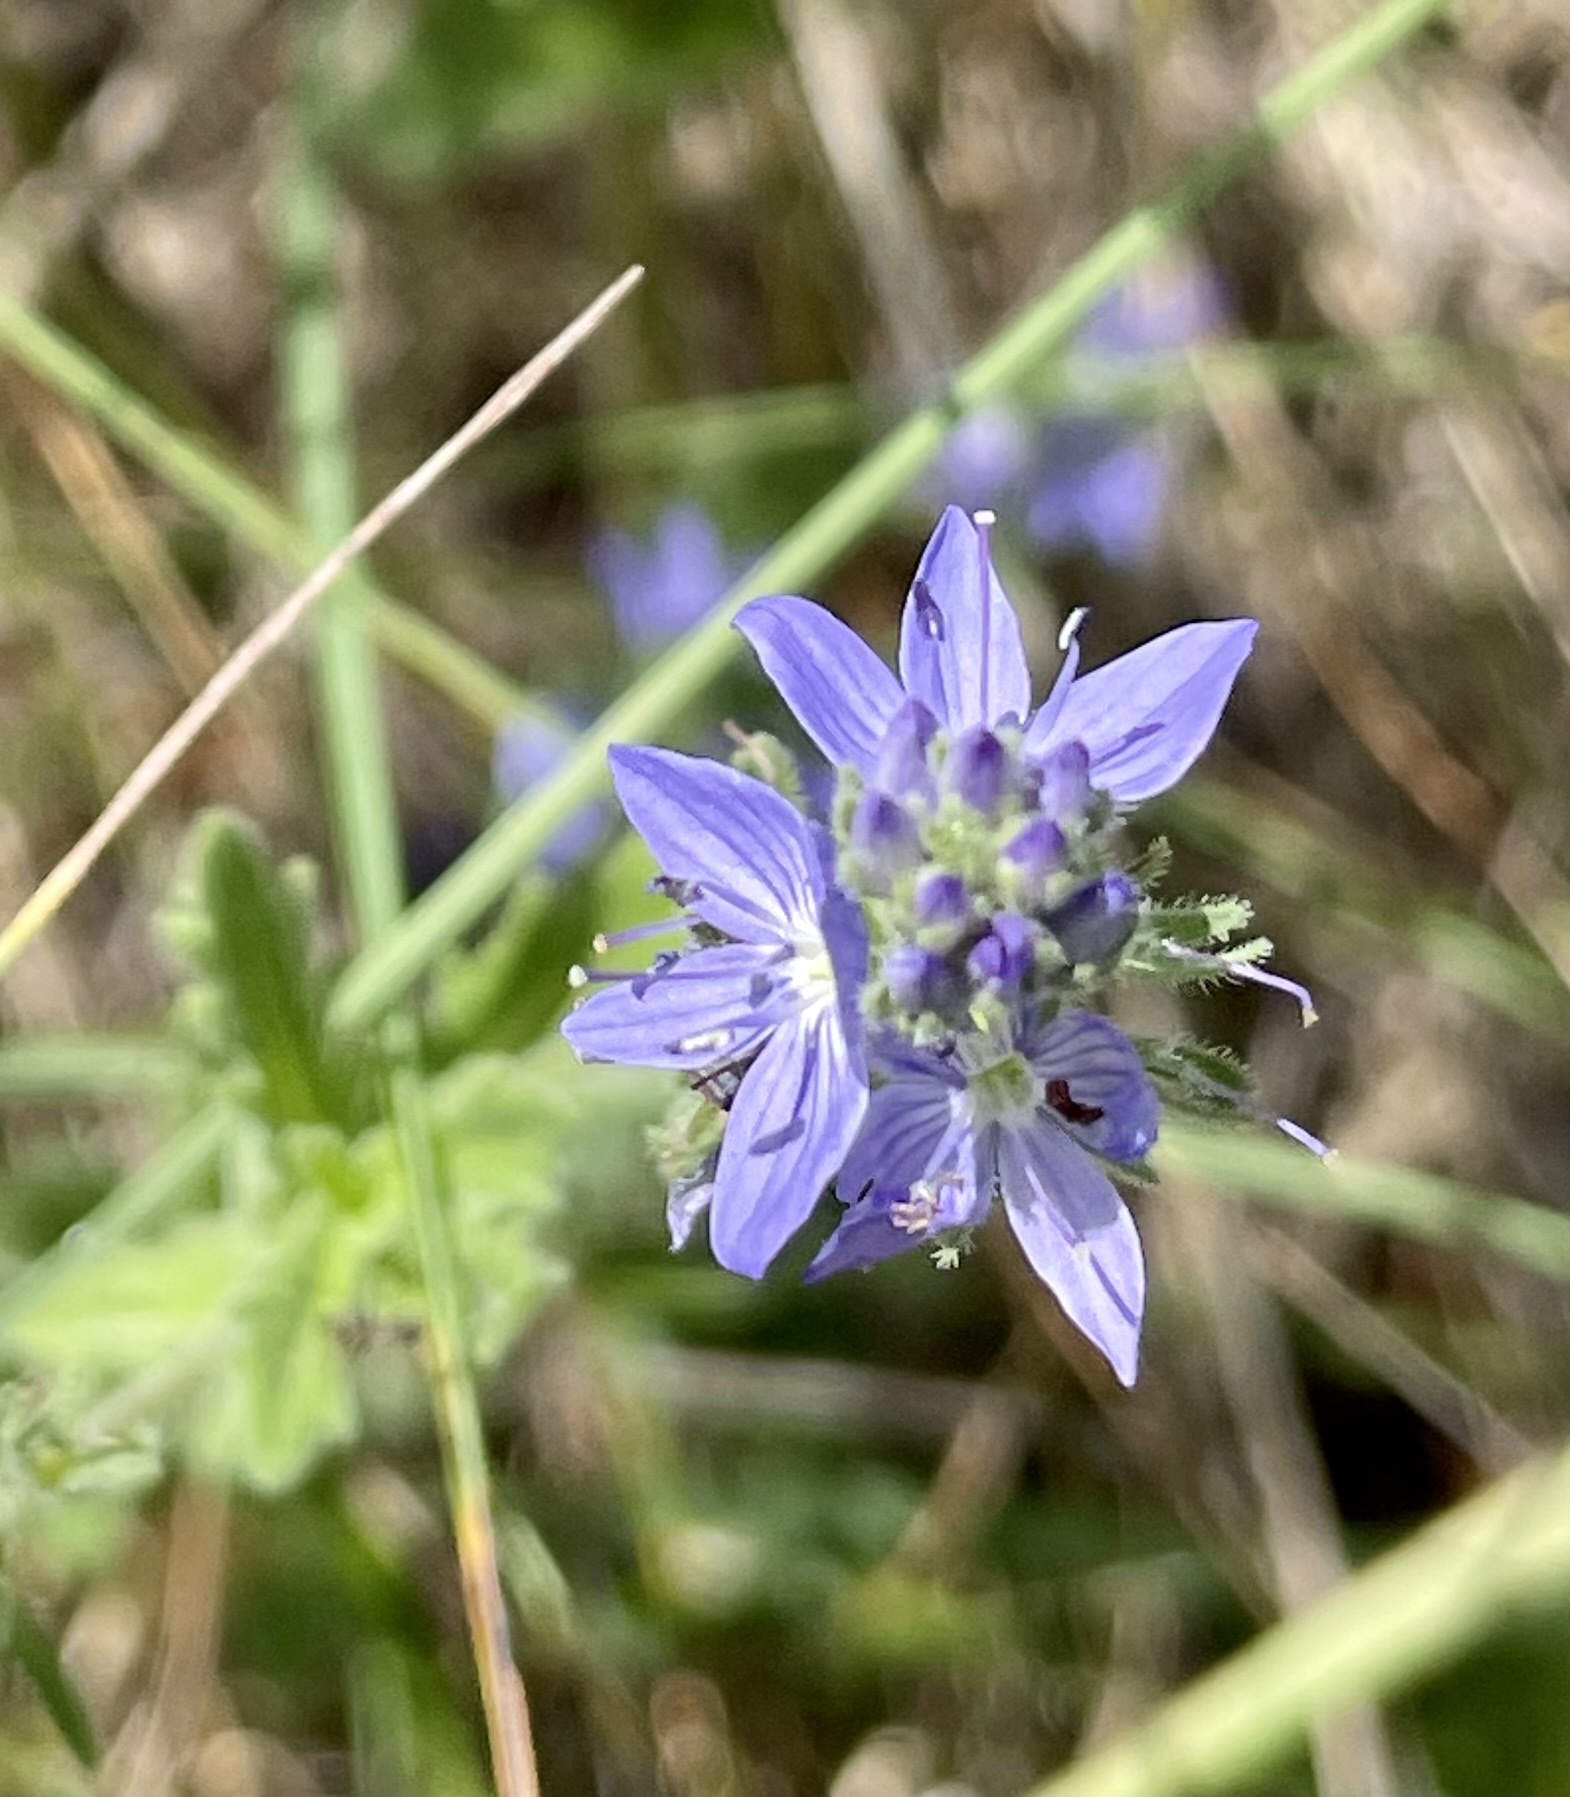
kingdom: Plantae
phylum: Tracheophyta
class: Magnoliopsida
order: Lamiales
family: Plantaginaceae
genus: Veronica
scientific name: Veronica orsiniana
